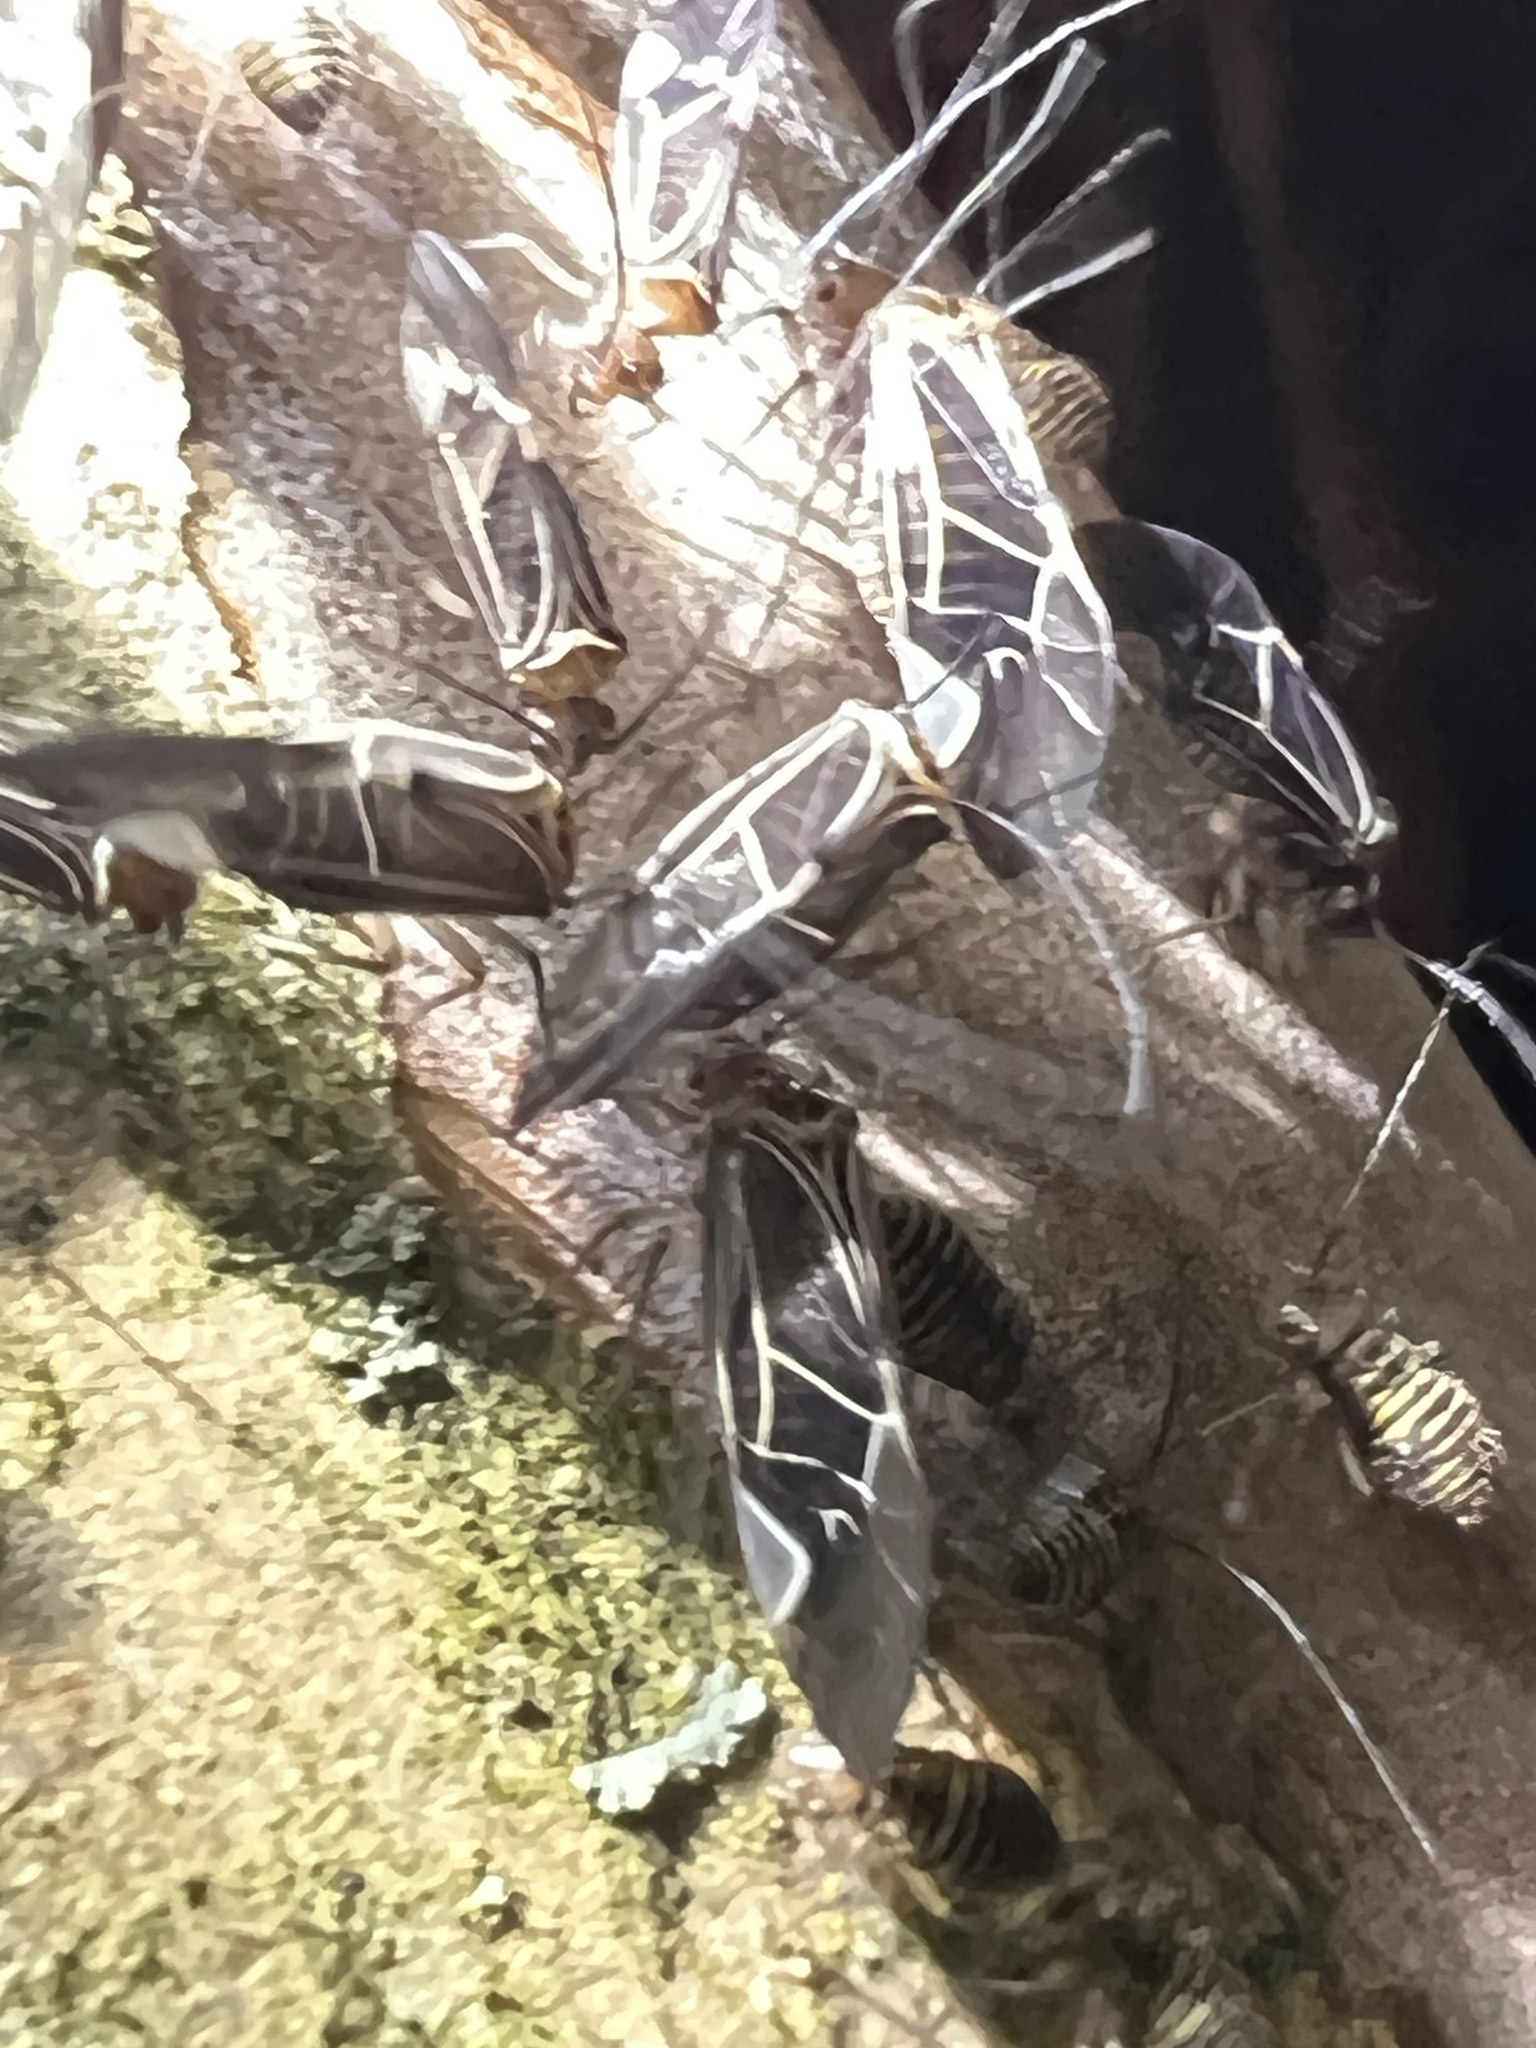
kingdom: Animalia
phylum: Arthropoda
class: Insecta
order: Psocodea
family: Psocidae
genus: Cerastipsocus
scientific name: Cerastipsocus venosus
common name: Tree cattle
